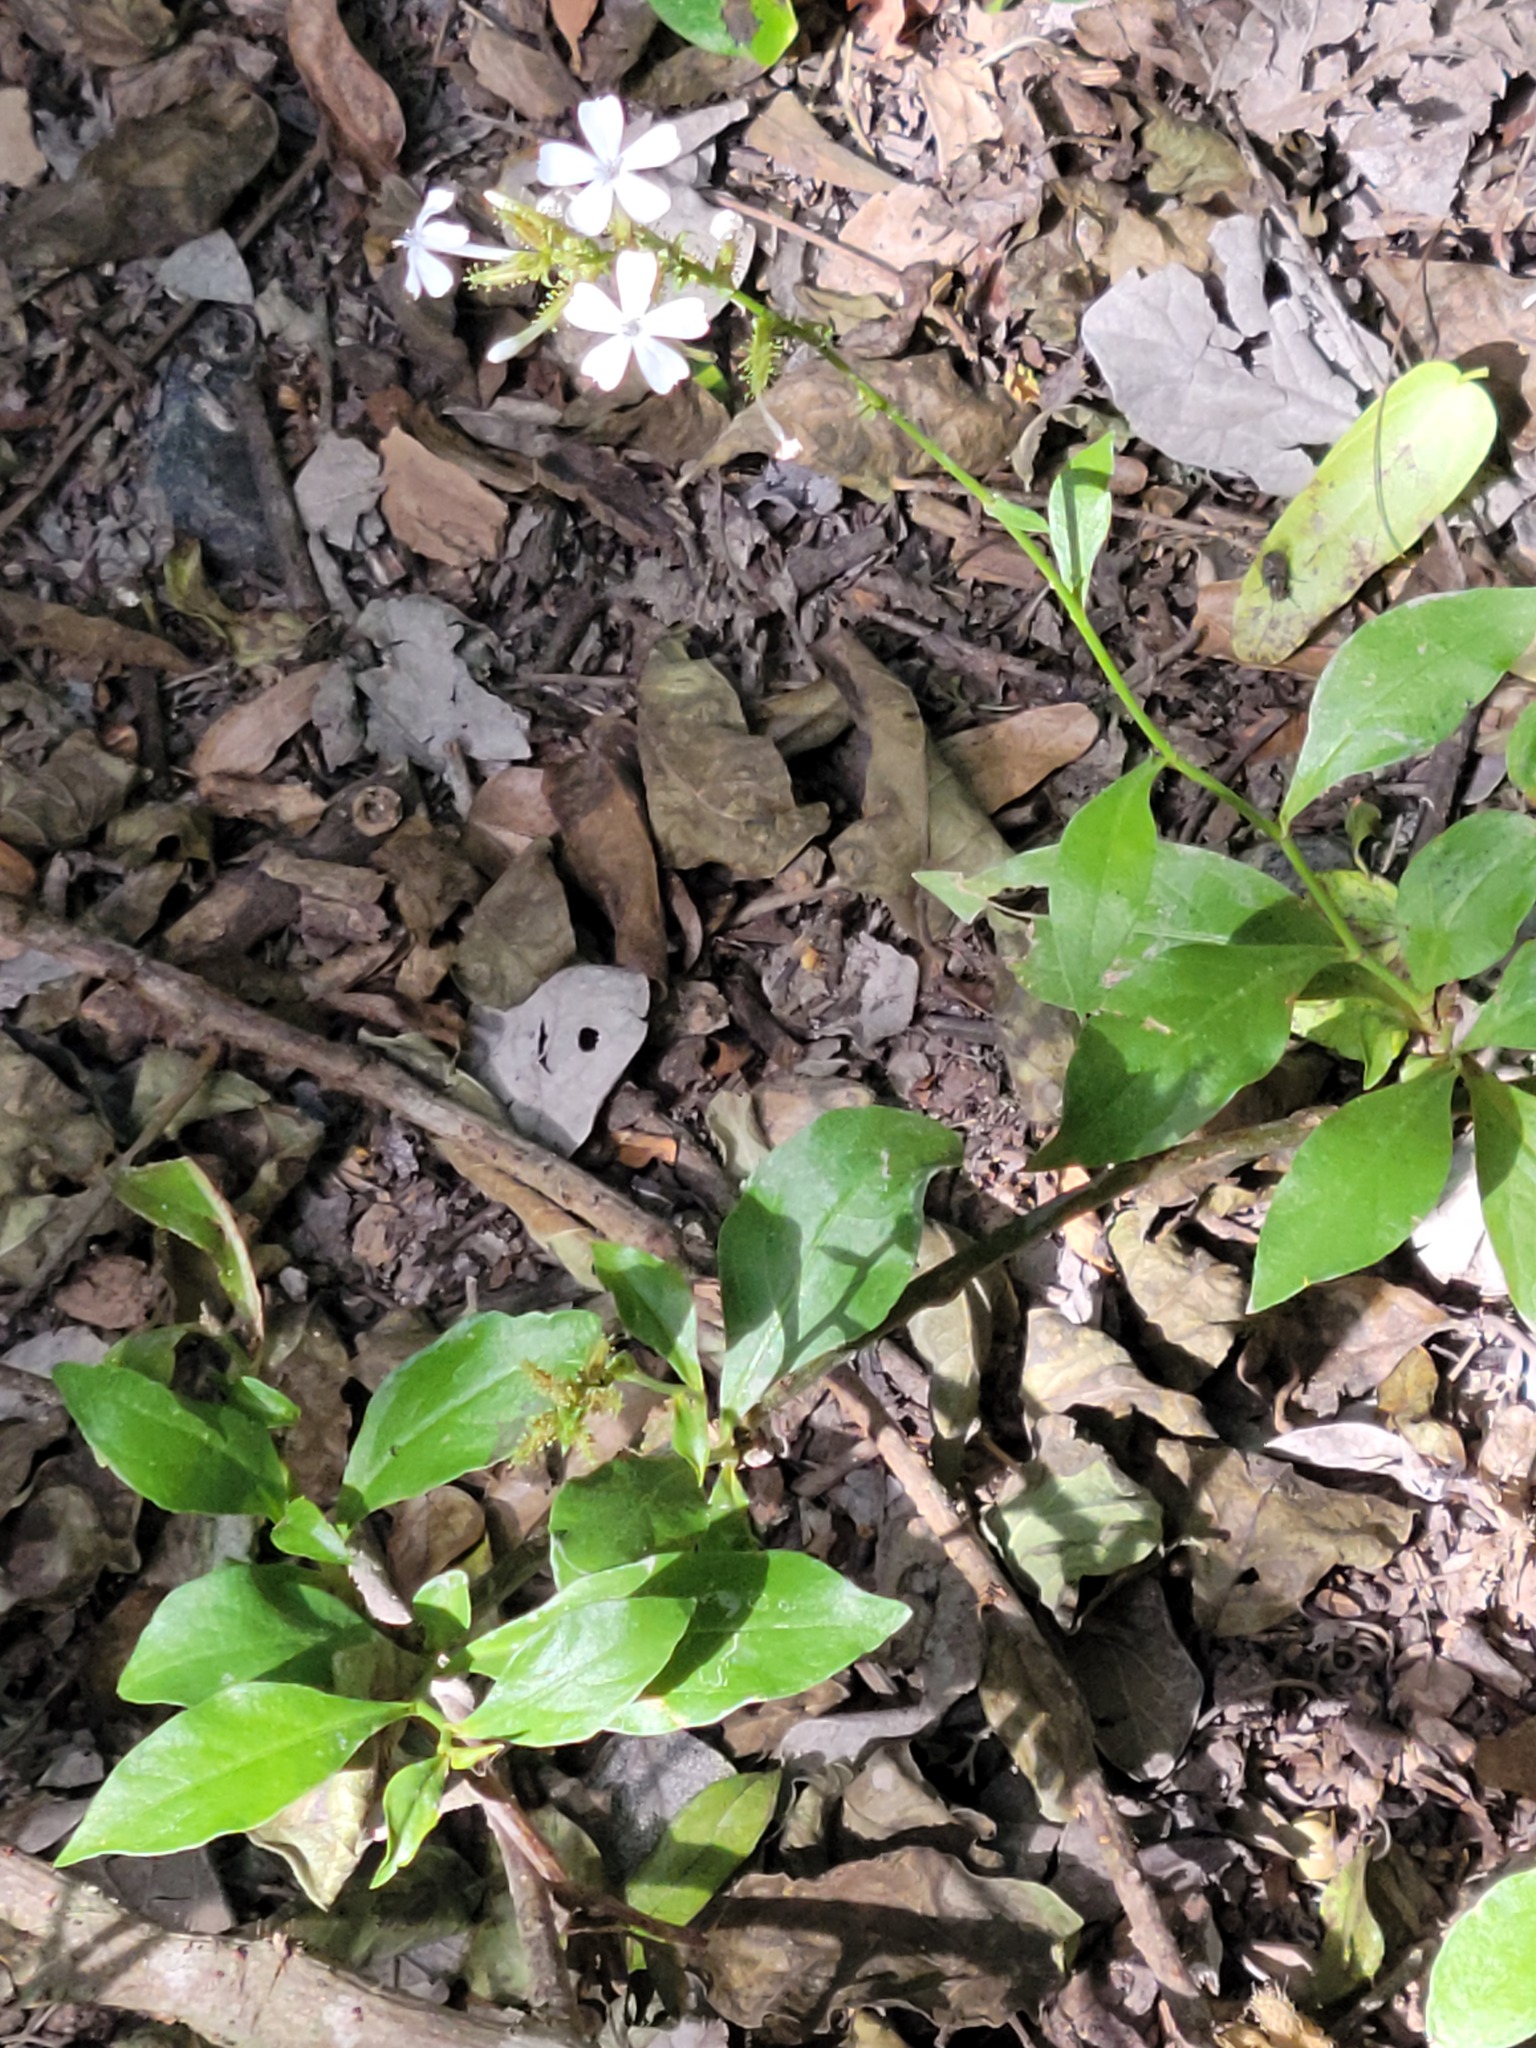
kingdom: Plantae
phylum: Tracheophyta
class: Magnoliopsida
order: Caryophyllales
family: Plumbaginaceae
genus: Plumbago
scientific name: Plumbago zeylanica
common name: Doctorbush
